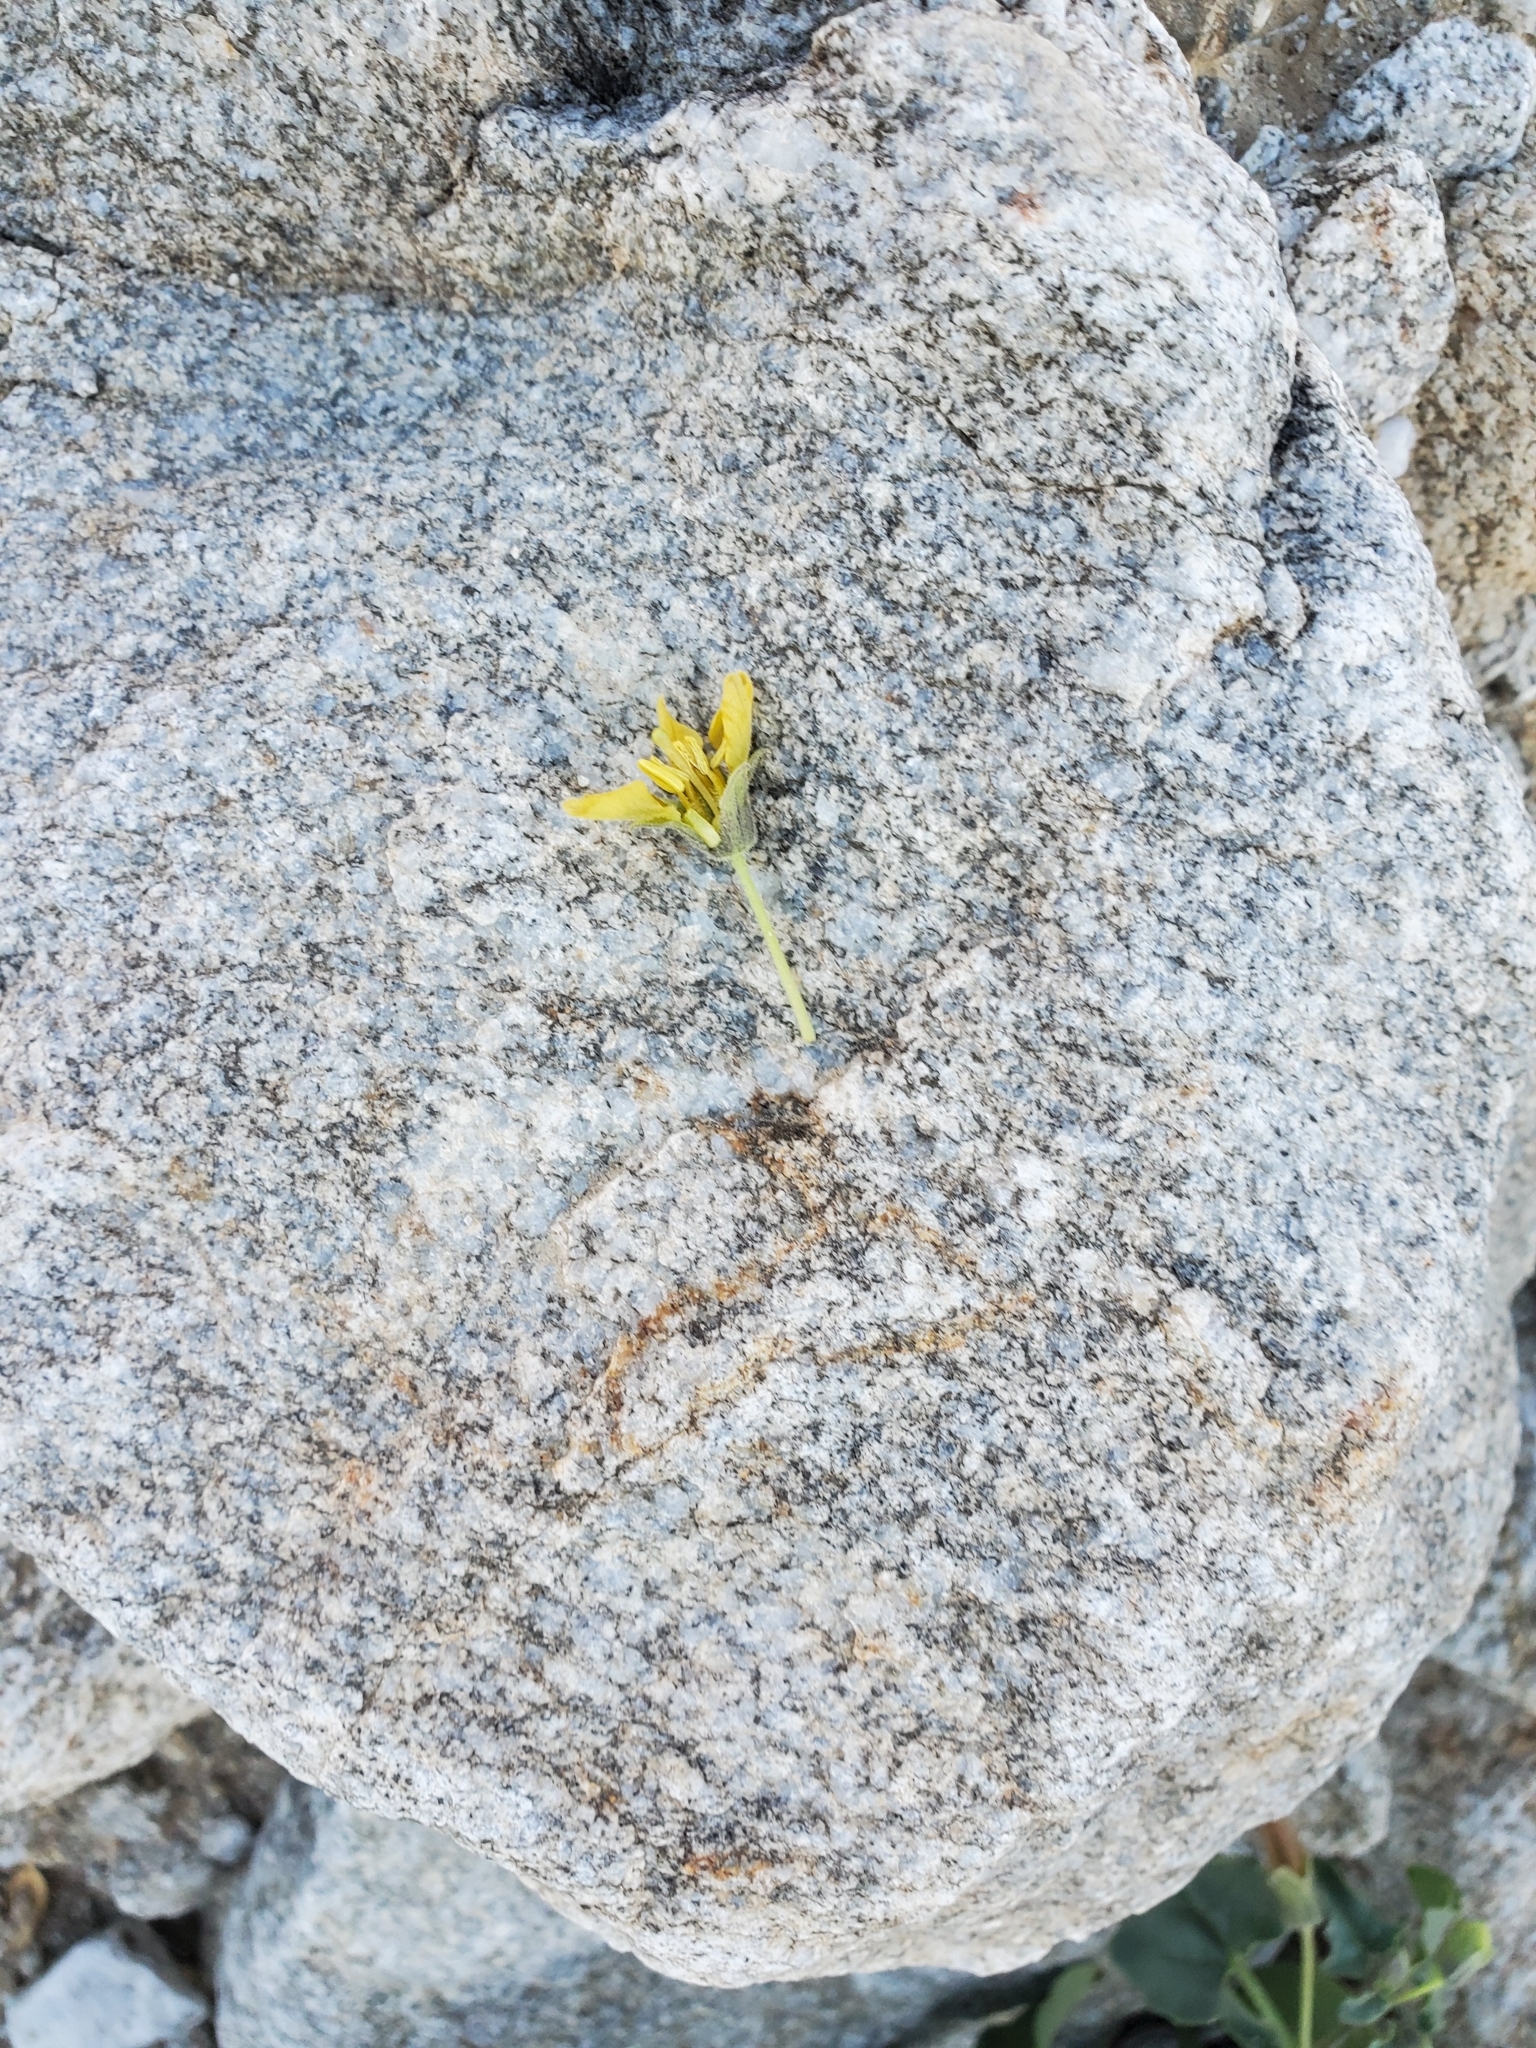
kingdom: Plantae
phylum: Tracheophyta
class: Magnoliopsida
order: Solanales
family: Solanaceae
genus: Physalis
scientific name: Physalis crassifolia
